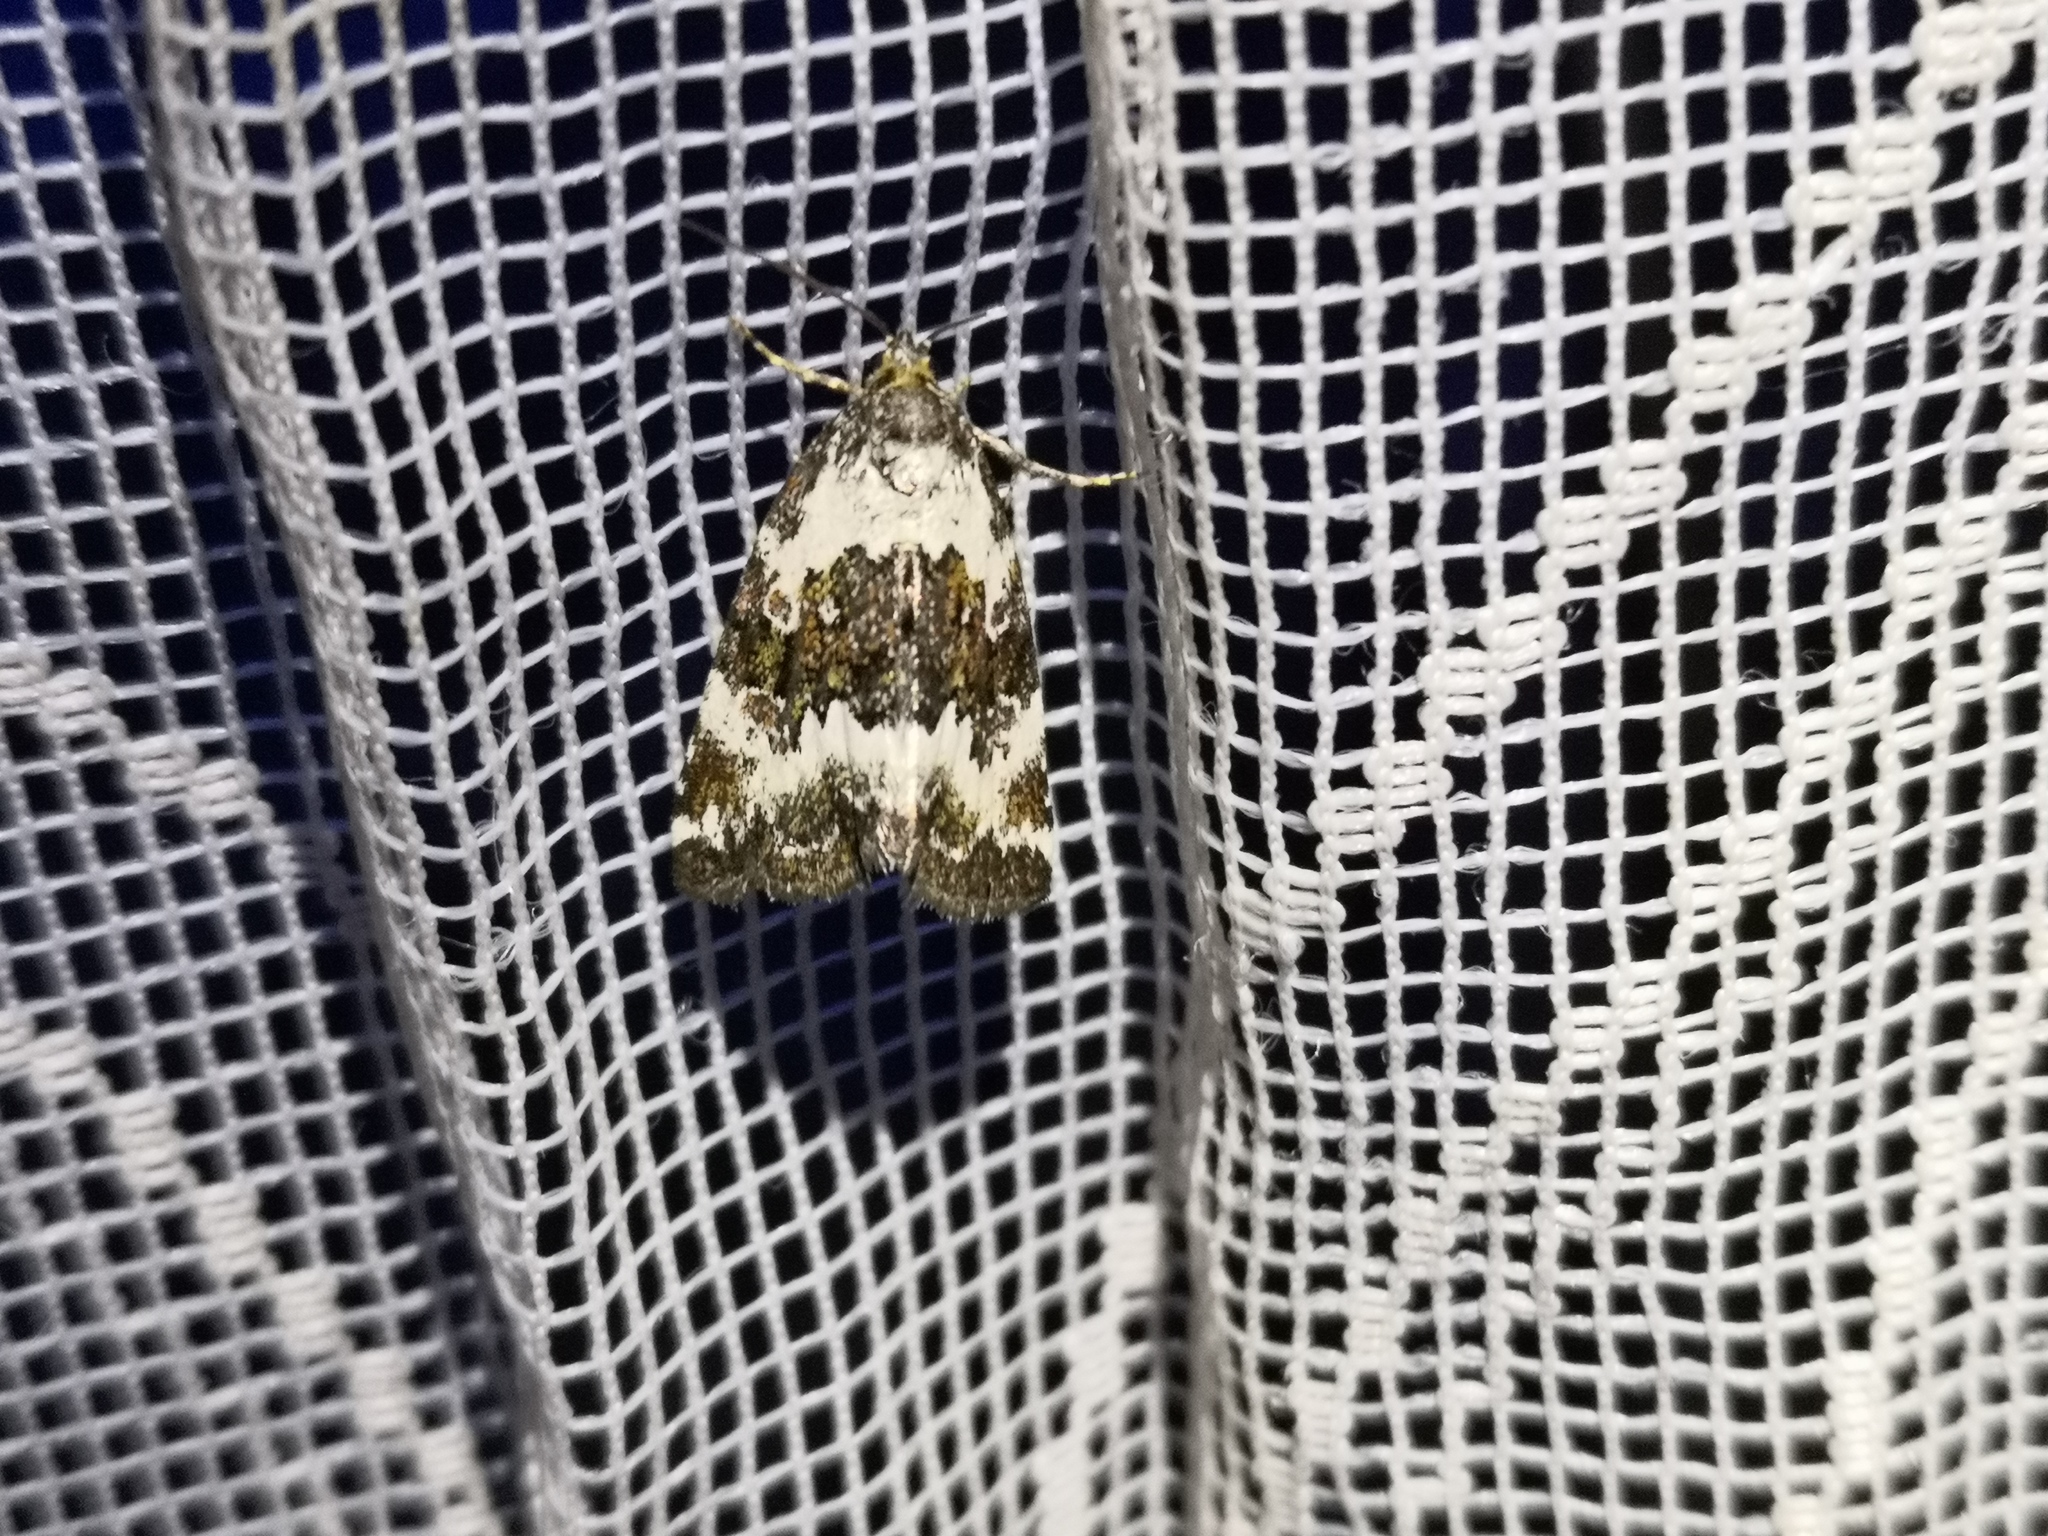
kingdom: Animalia
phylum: Arthropoda
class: Insecta
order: Lepidoptera
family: Noctuidae
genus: Deltote
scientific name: Deltote deceptoria
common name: Pretty marbled
